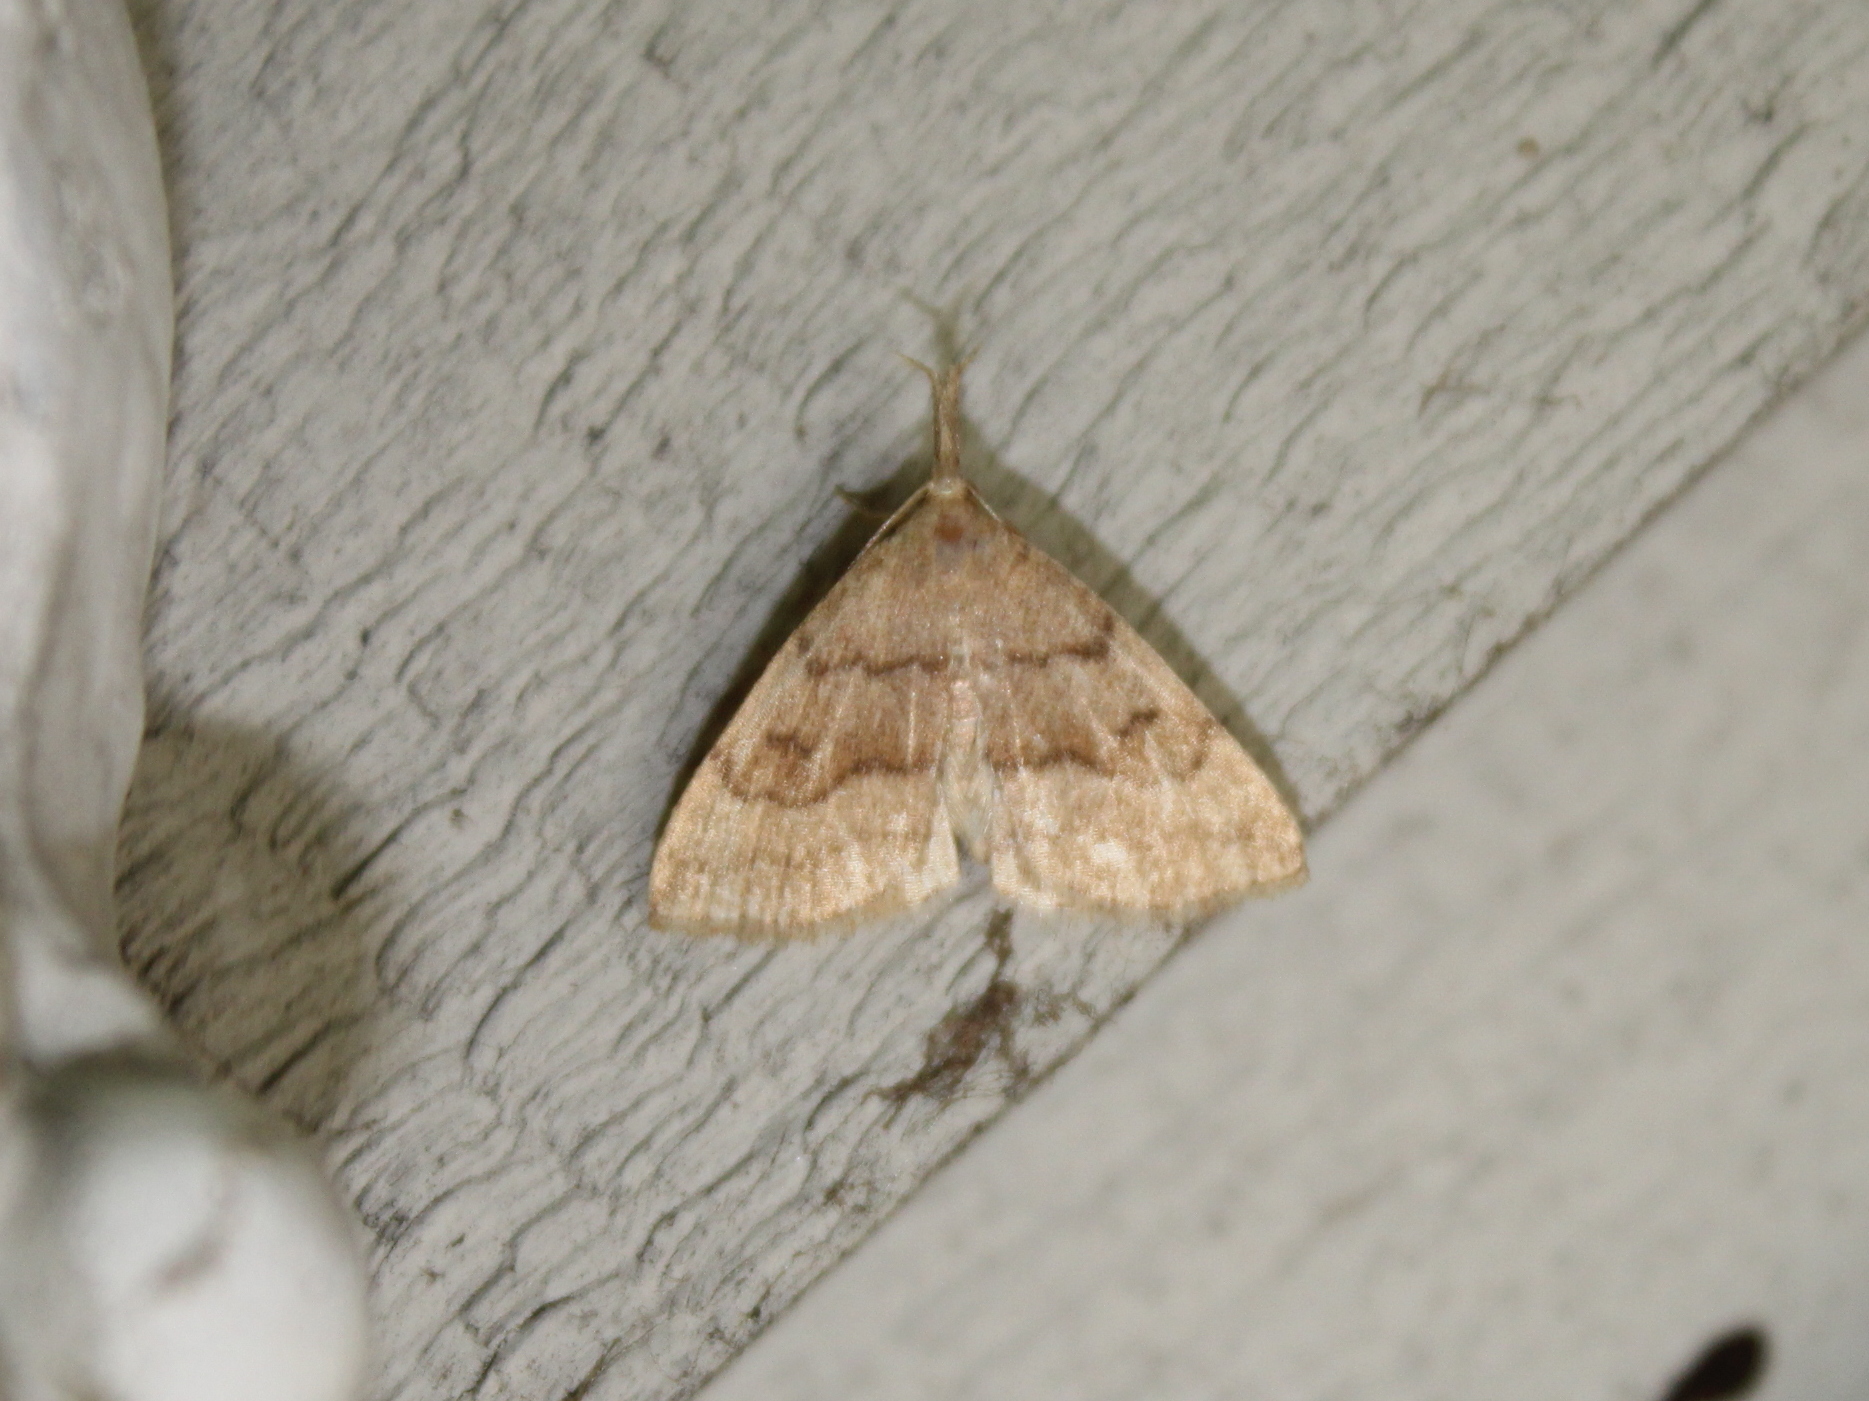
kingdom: Animalia
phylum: Arthropoda
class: Insecta
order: Lepidoptera
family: Erebidae
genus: Phalaenostola
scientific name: Phalaenostola metonalis
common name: Pale phalaenostola moth
